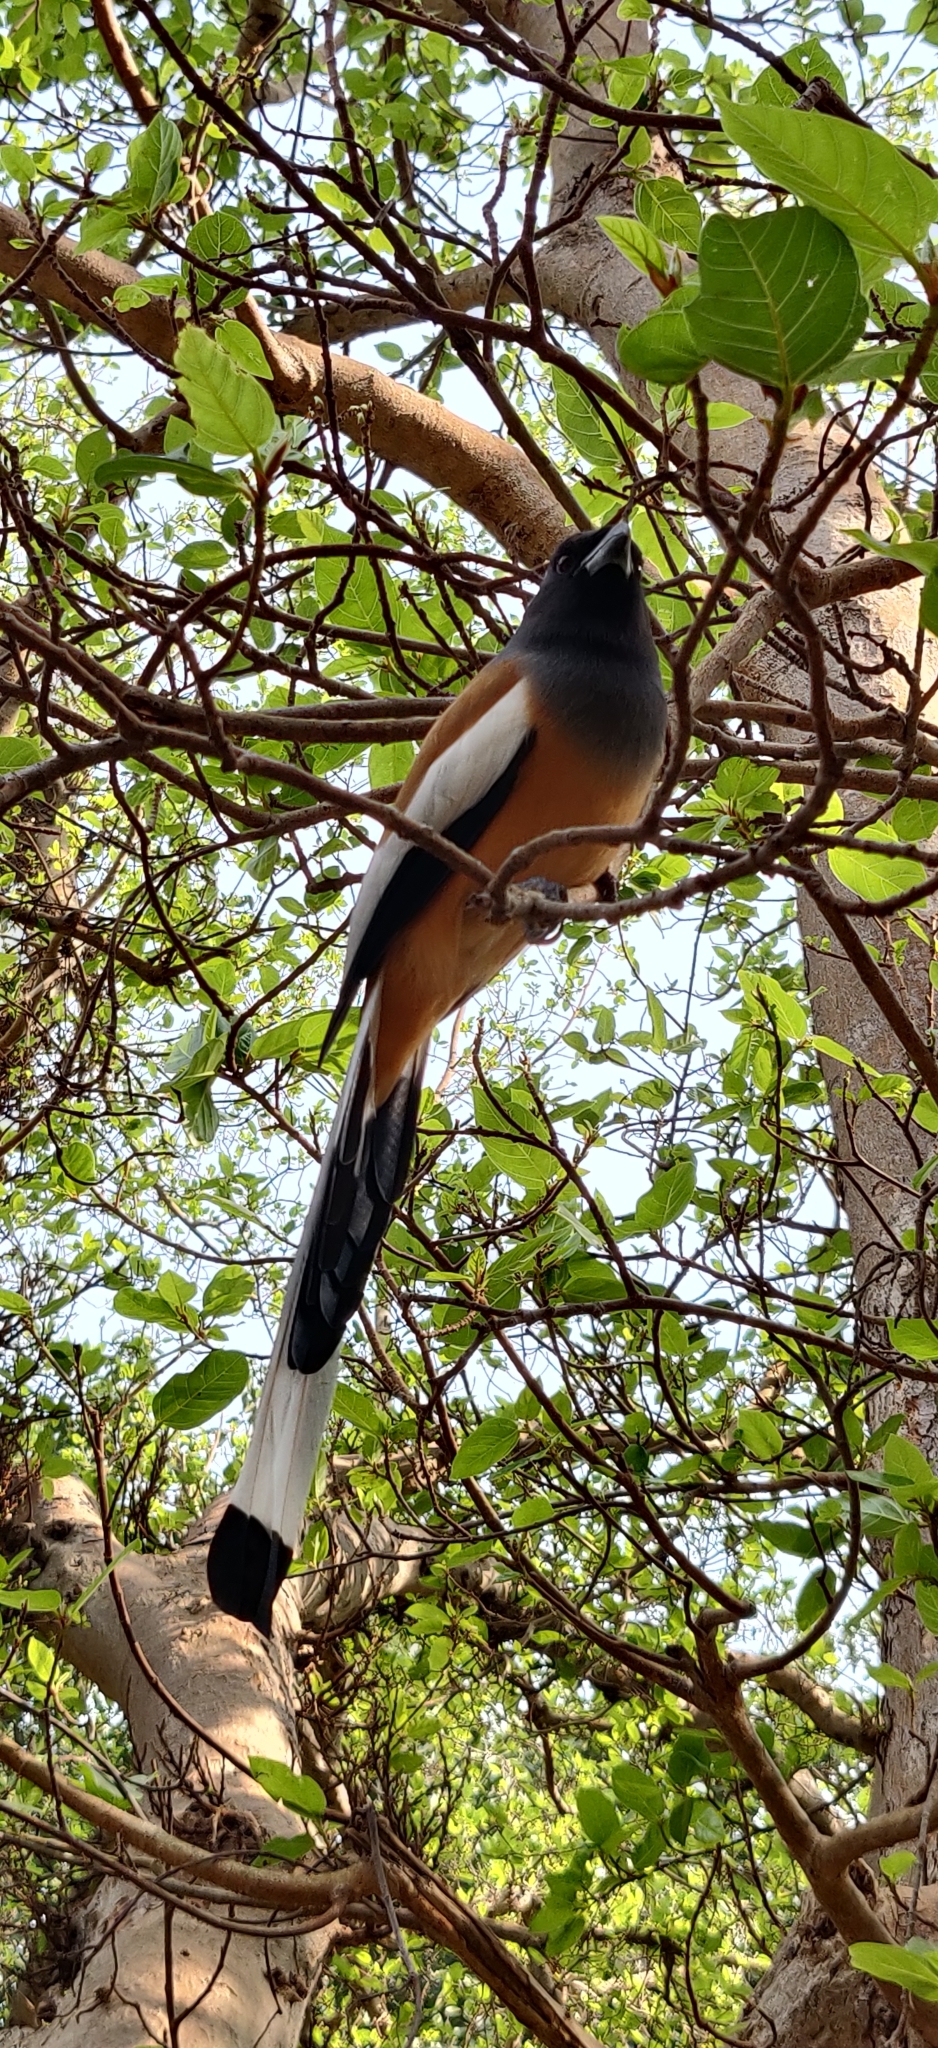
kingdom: Animalia
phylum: Chordata
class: Aves
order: Passeriformes
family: Corvidae
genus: Dendrocitta
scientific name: Dendrocitta vagabunda
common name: Rufous treepie
